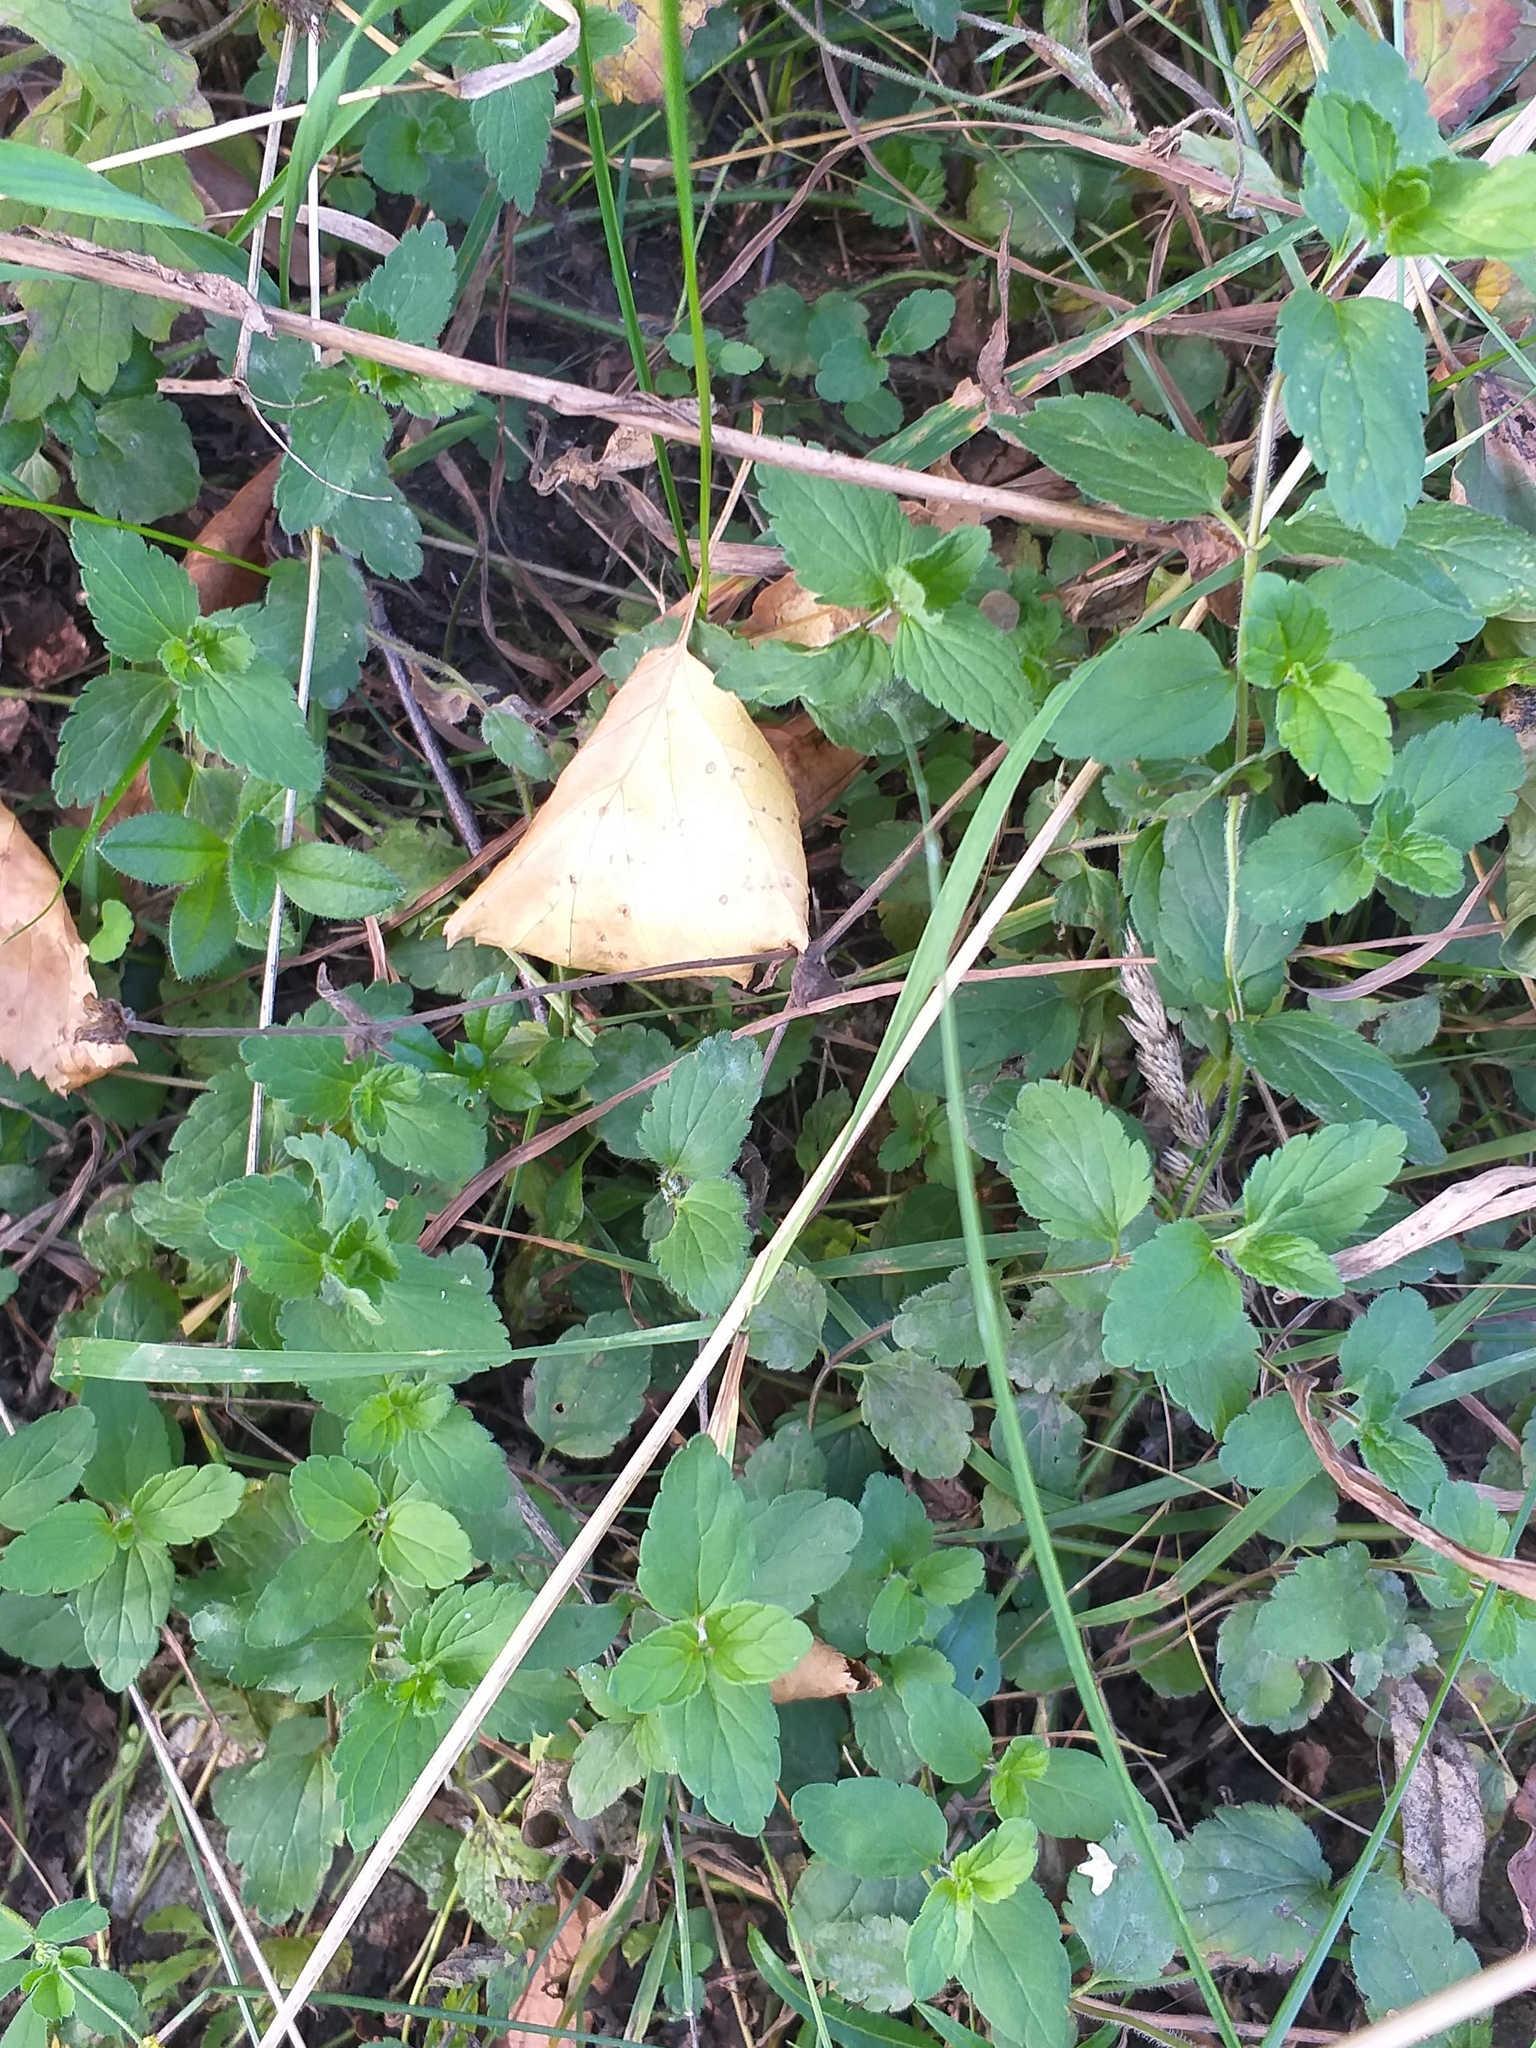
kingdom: Plantae
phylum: Tracheophyta
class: Magnoliopsida
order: Lamiales
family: Plantaginaceae
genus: Veronica
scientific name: Veronica chamaedrys
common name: Germander speedwell
